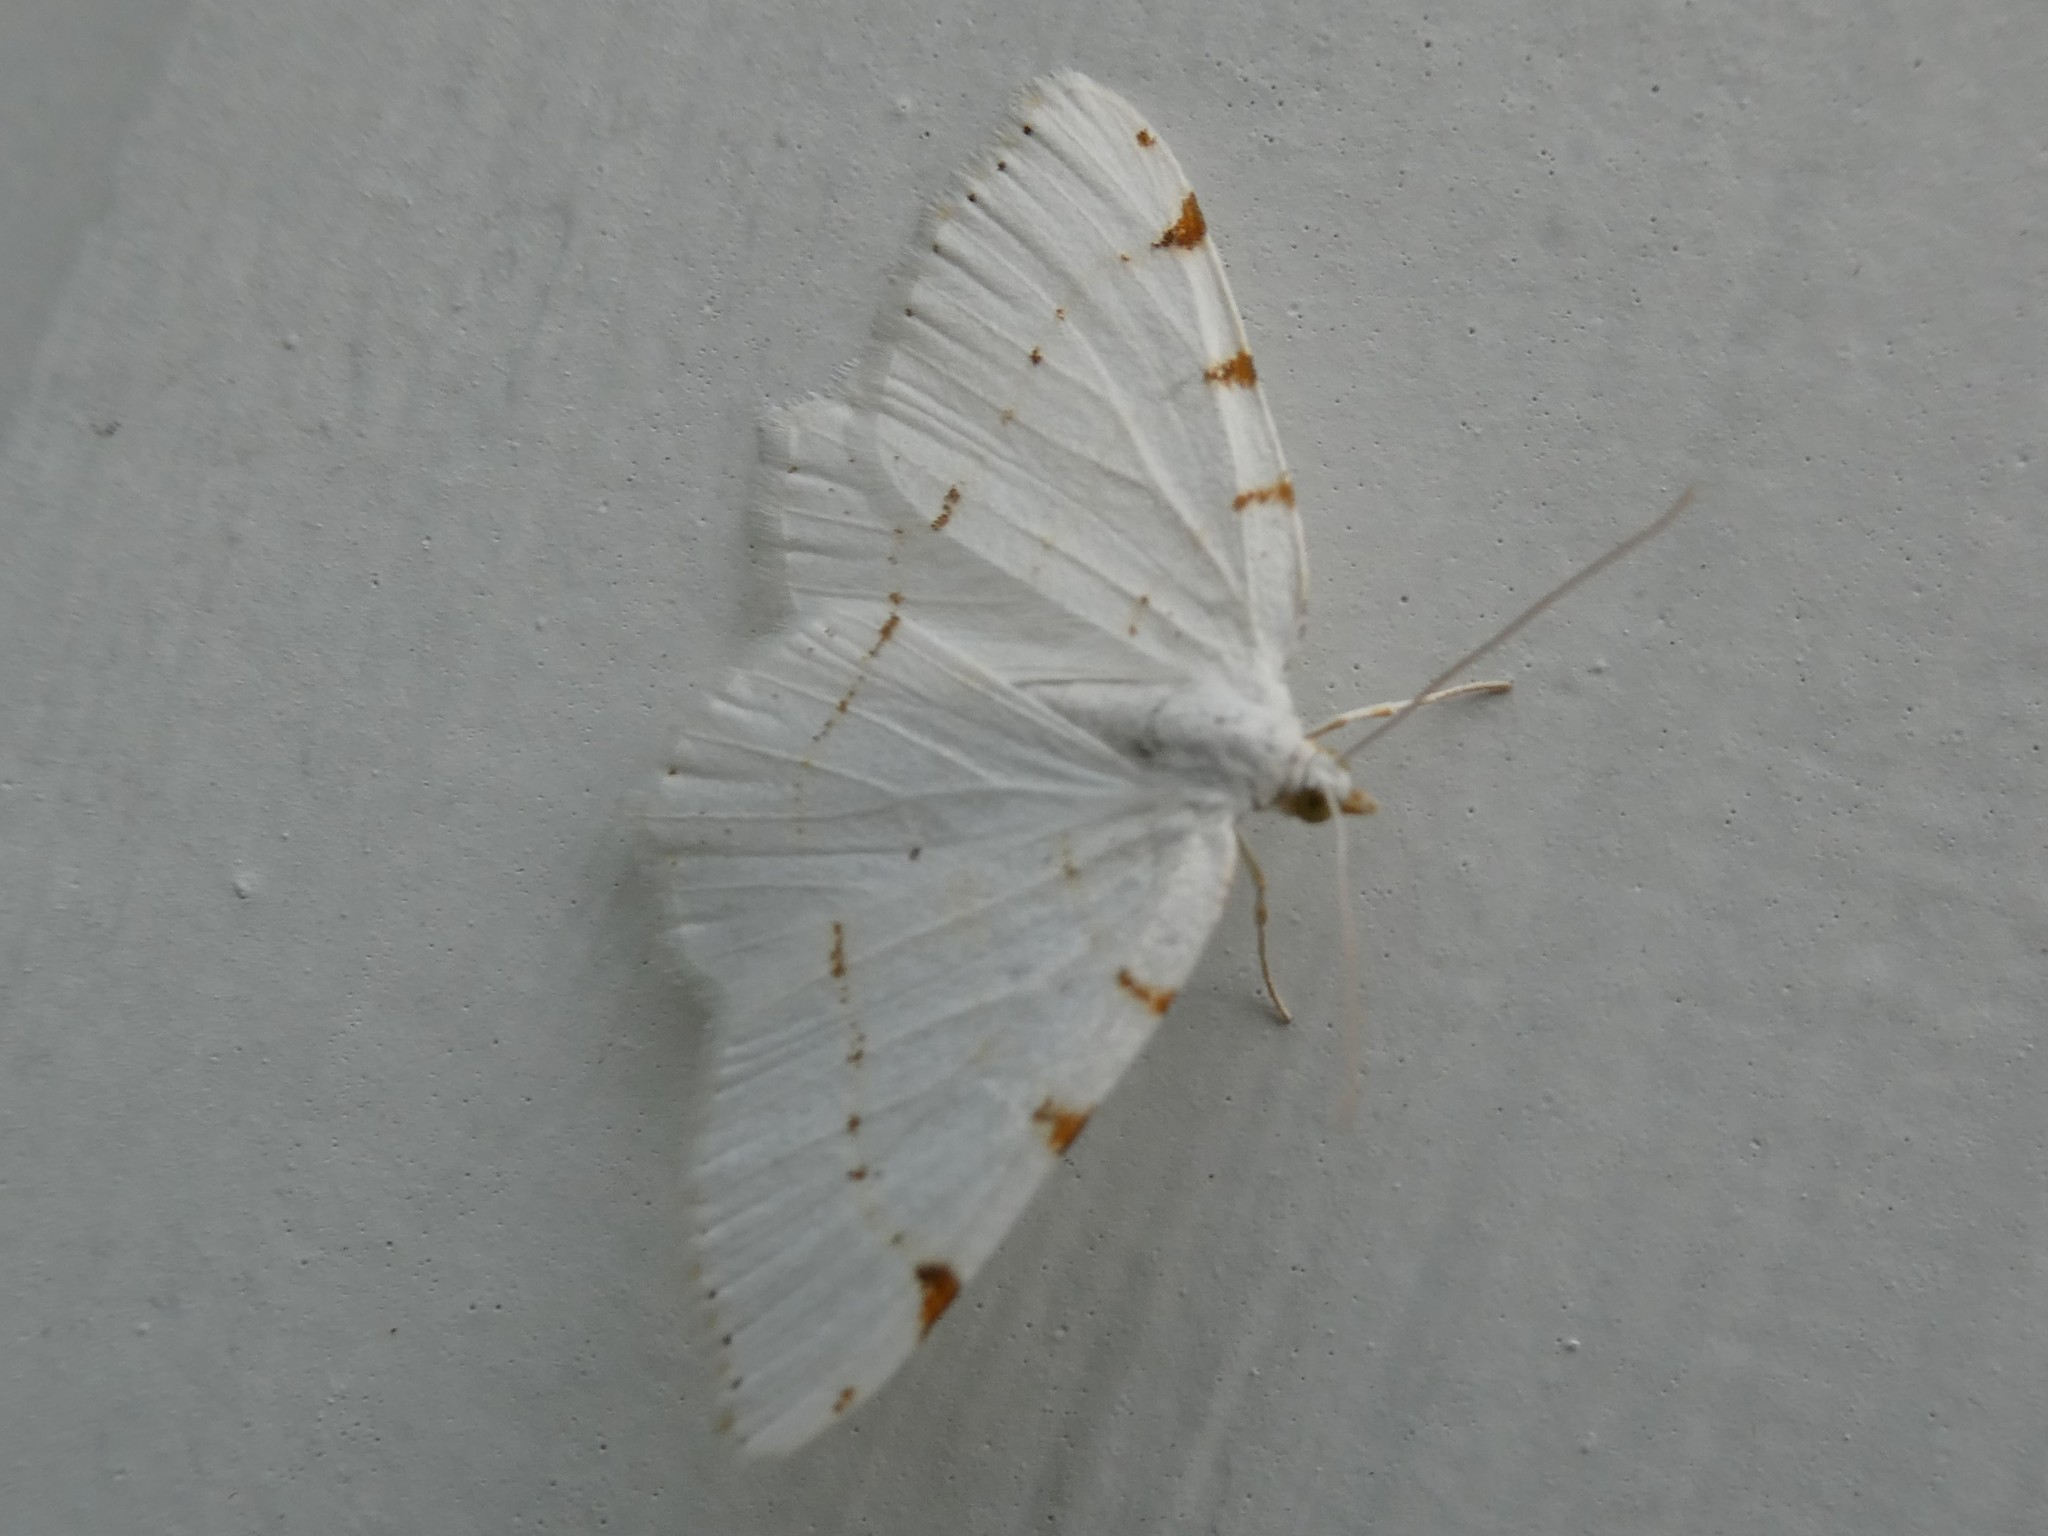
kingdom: Animalia
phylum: Arthropoda
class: Insecta
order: Lepidoptera
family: Geometridae
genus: Macaria
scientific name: Macaria pustularia
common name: Lesser maple spanworm moth
